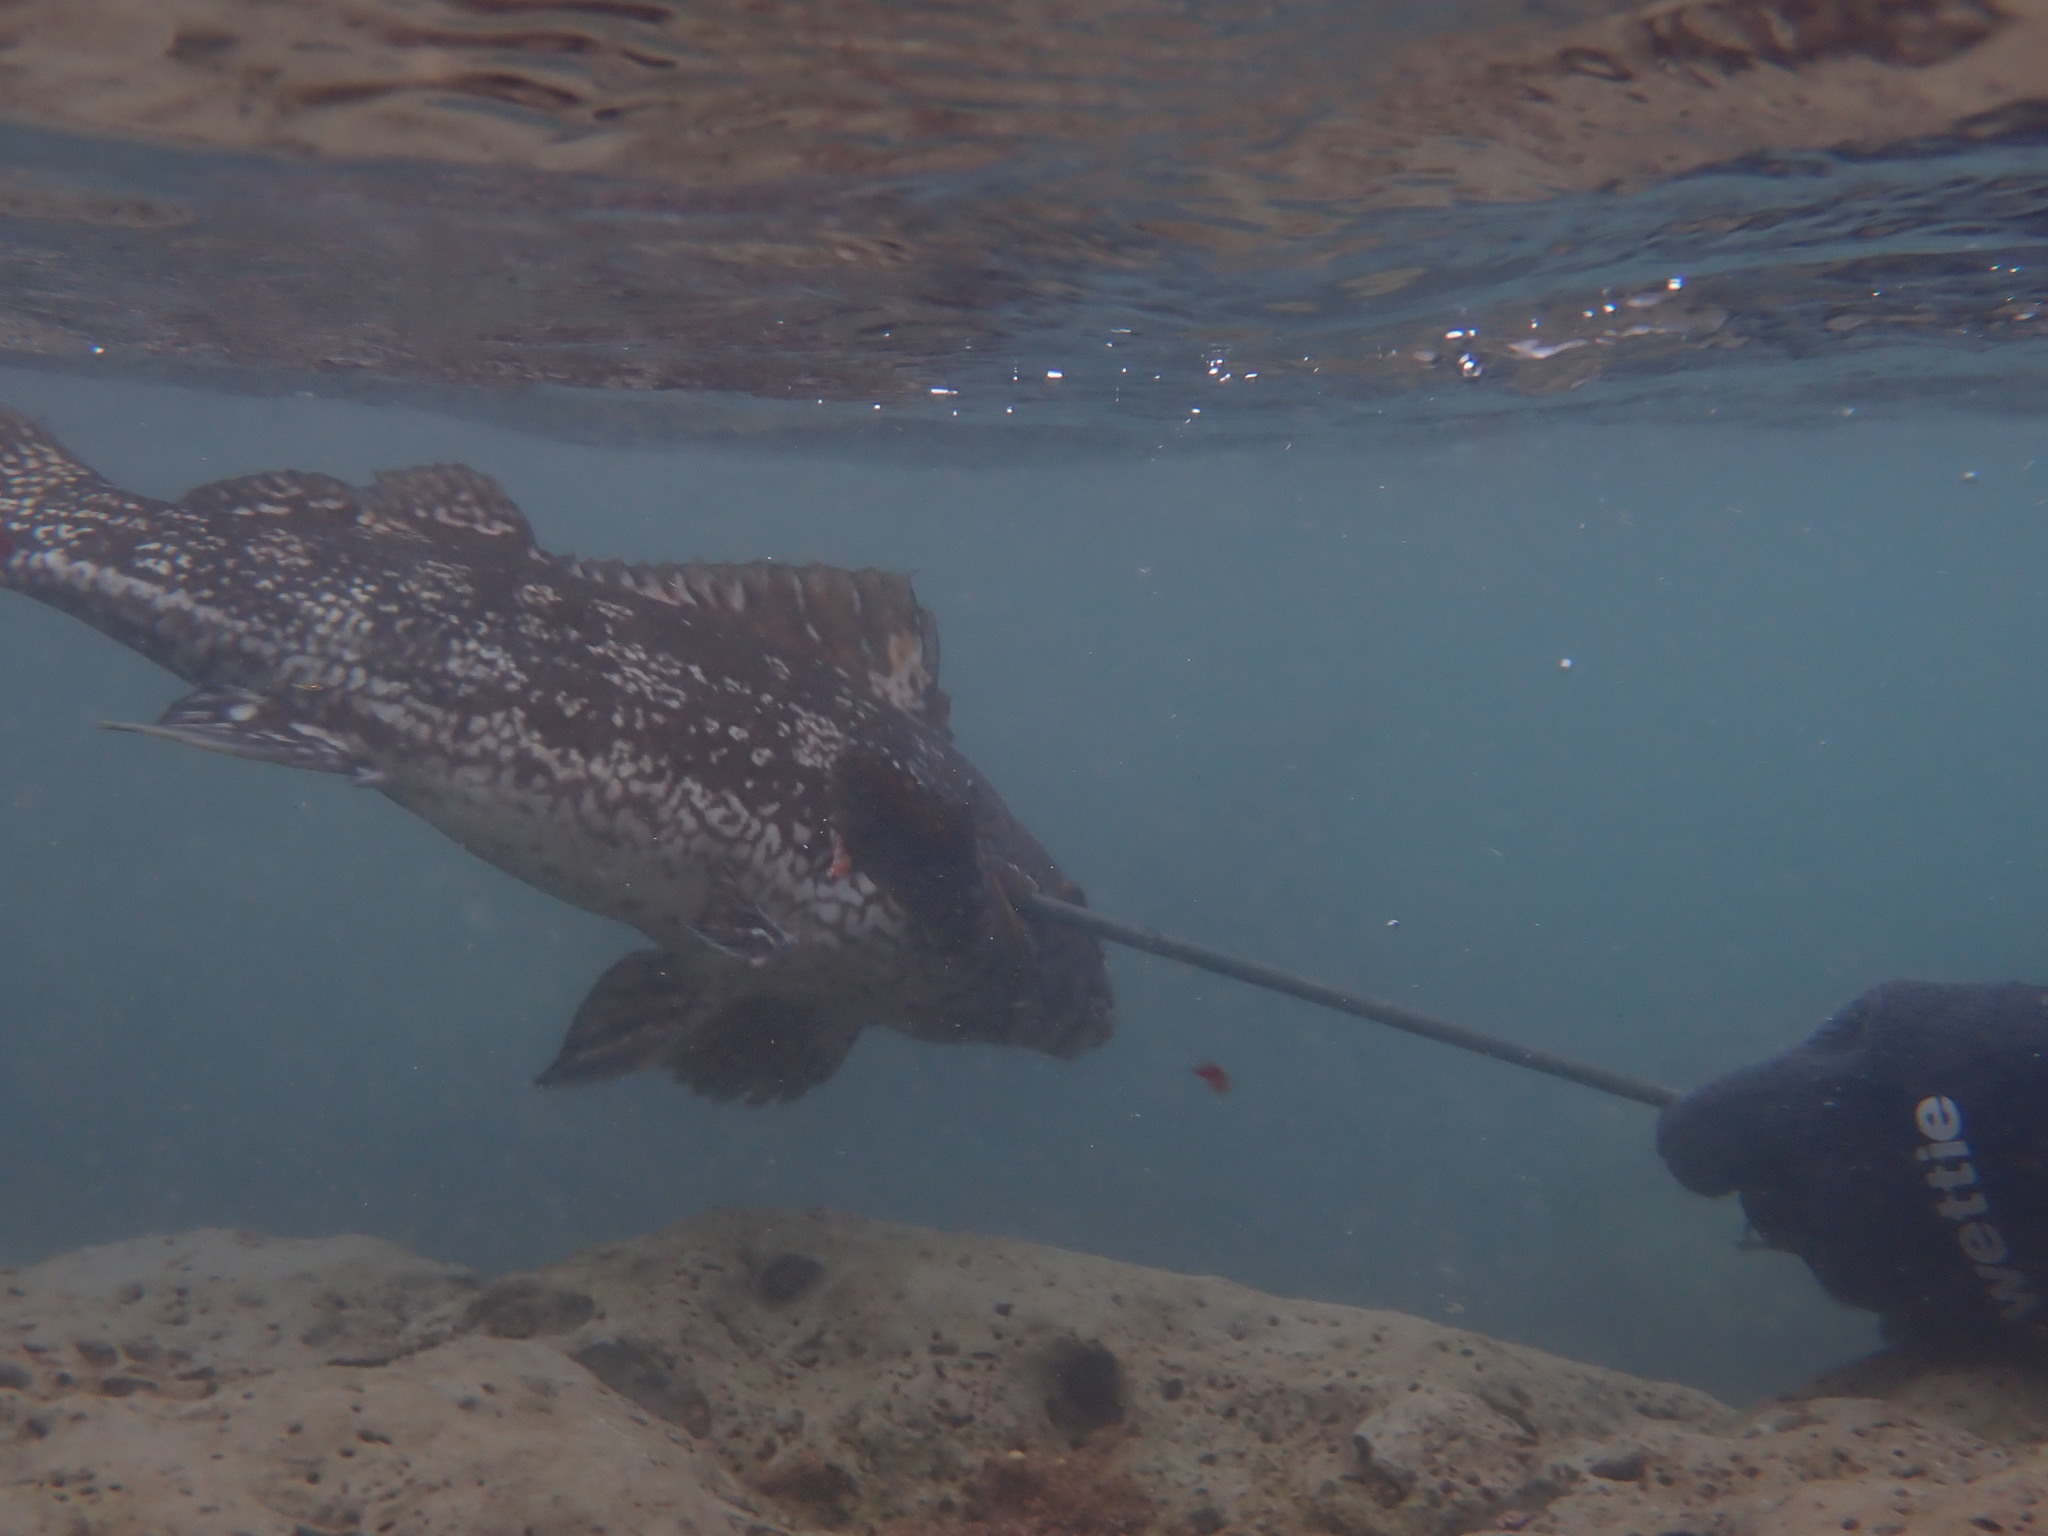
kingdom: Animalia
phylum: Chordata
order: Perciformes
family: Aplodactylidae
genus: Aplodactylus
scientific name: Aplodactylus arctidens
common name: Marblefish
